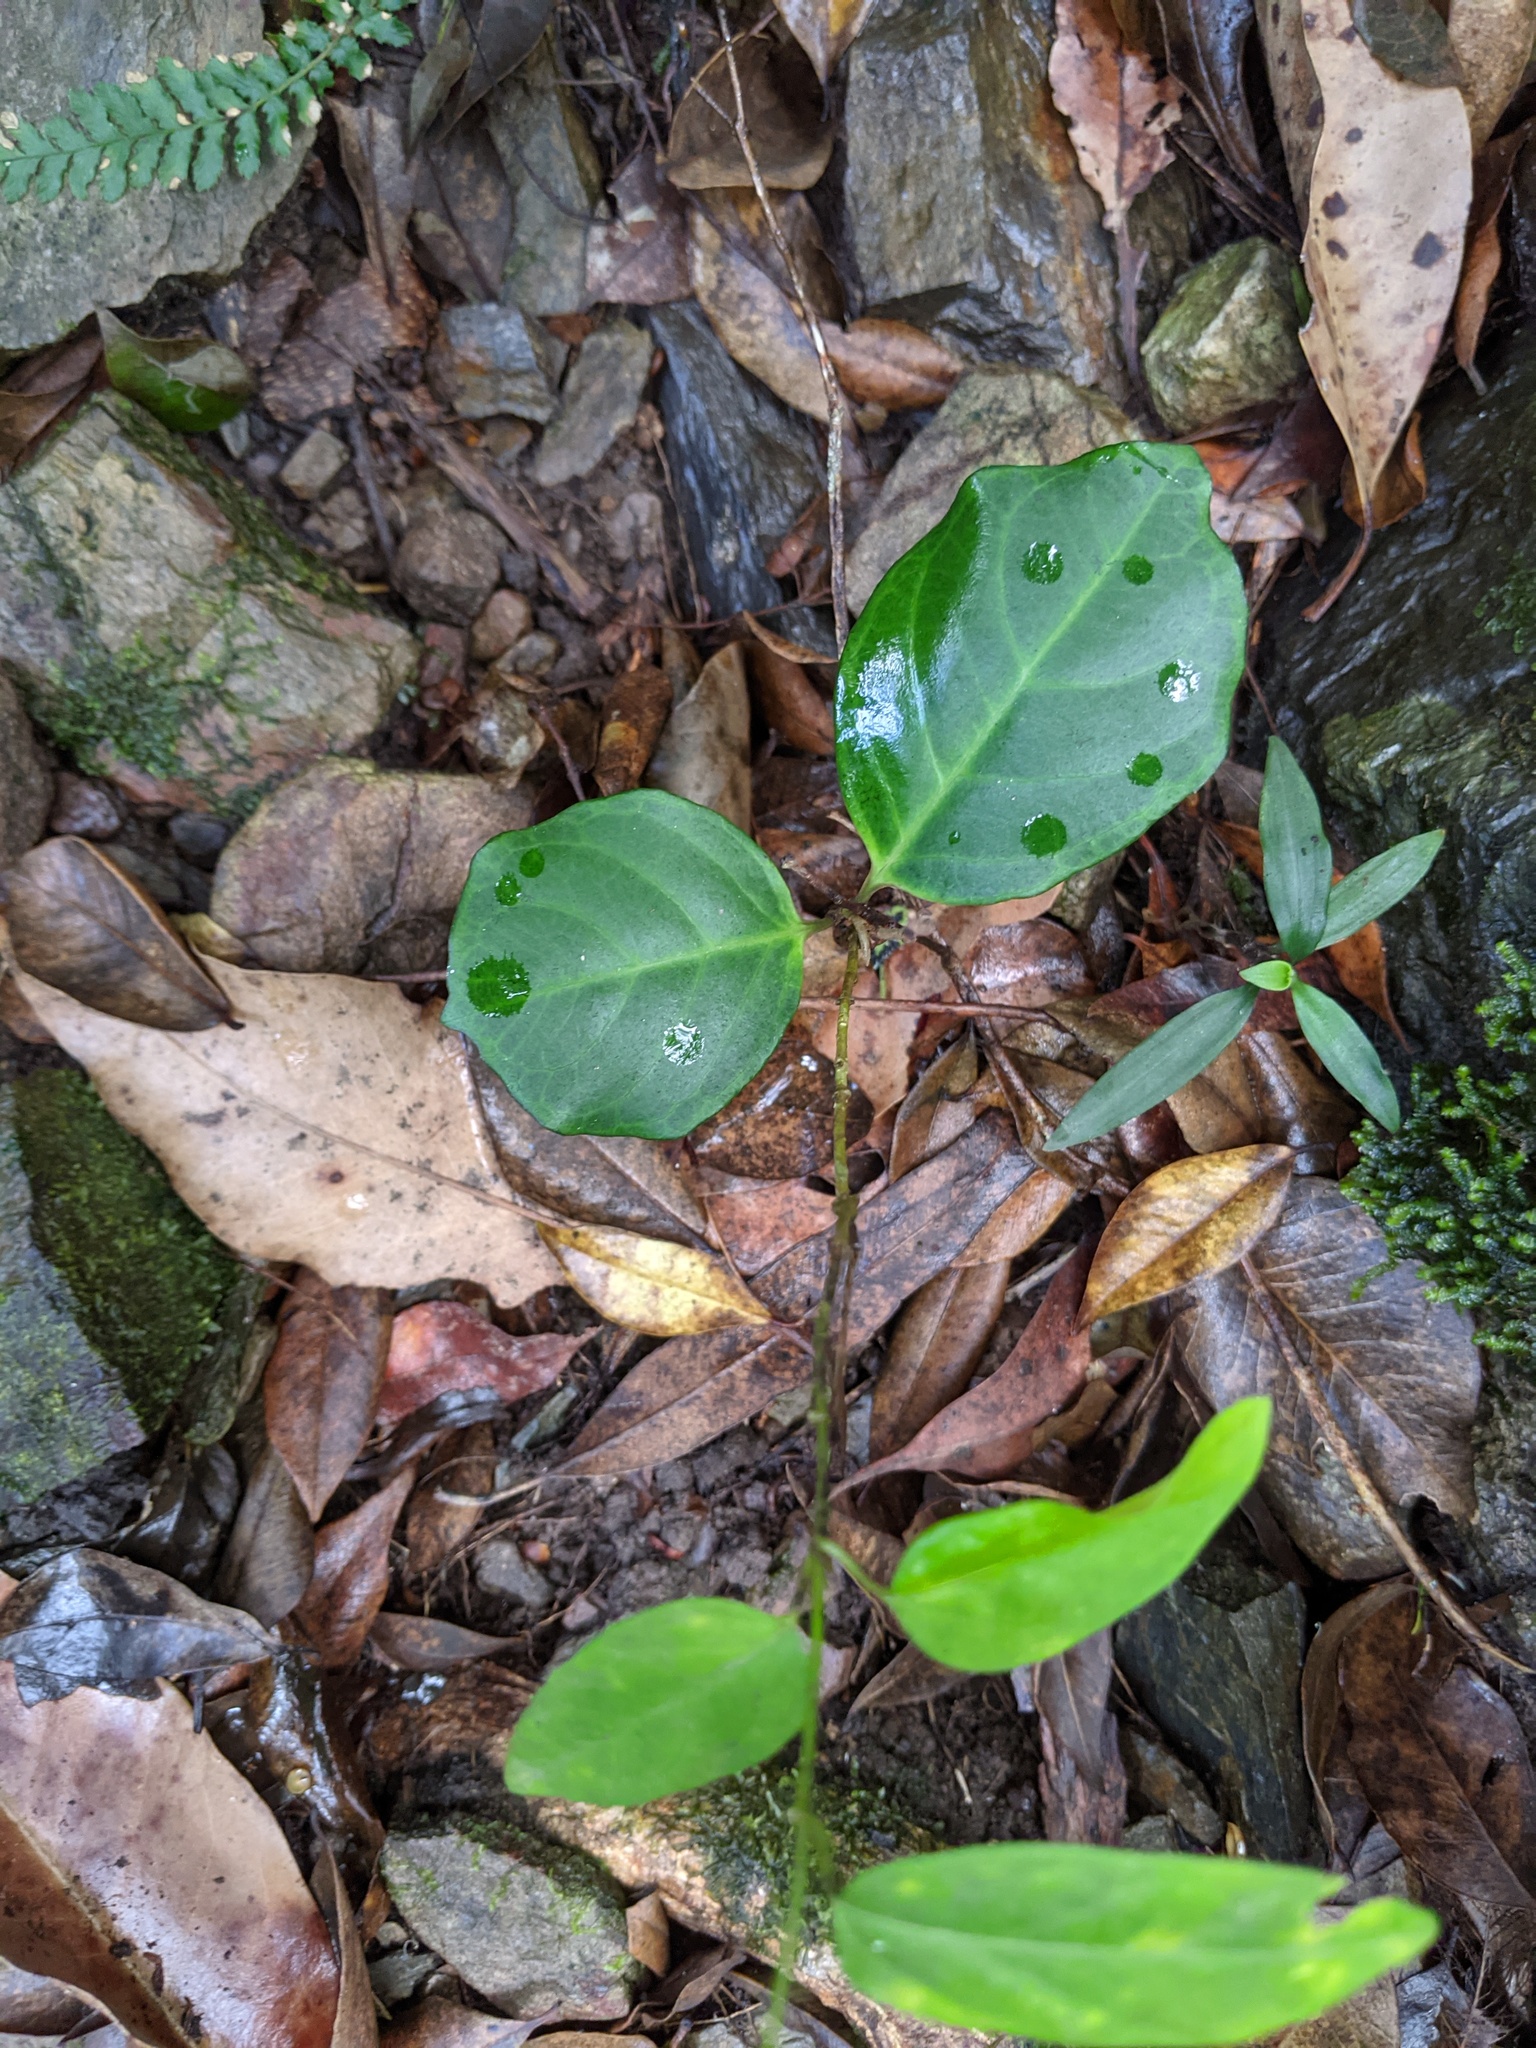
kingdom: Plantae
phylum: Tracheophyta
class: Magnoliopsida
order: Ericales
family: Primulaceae
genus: Embelia
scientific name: Embelia australiana
